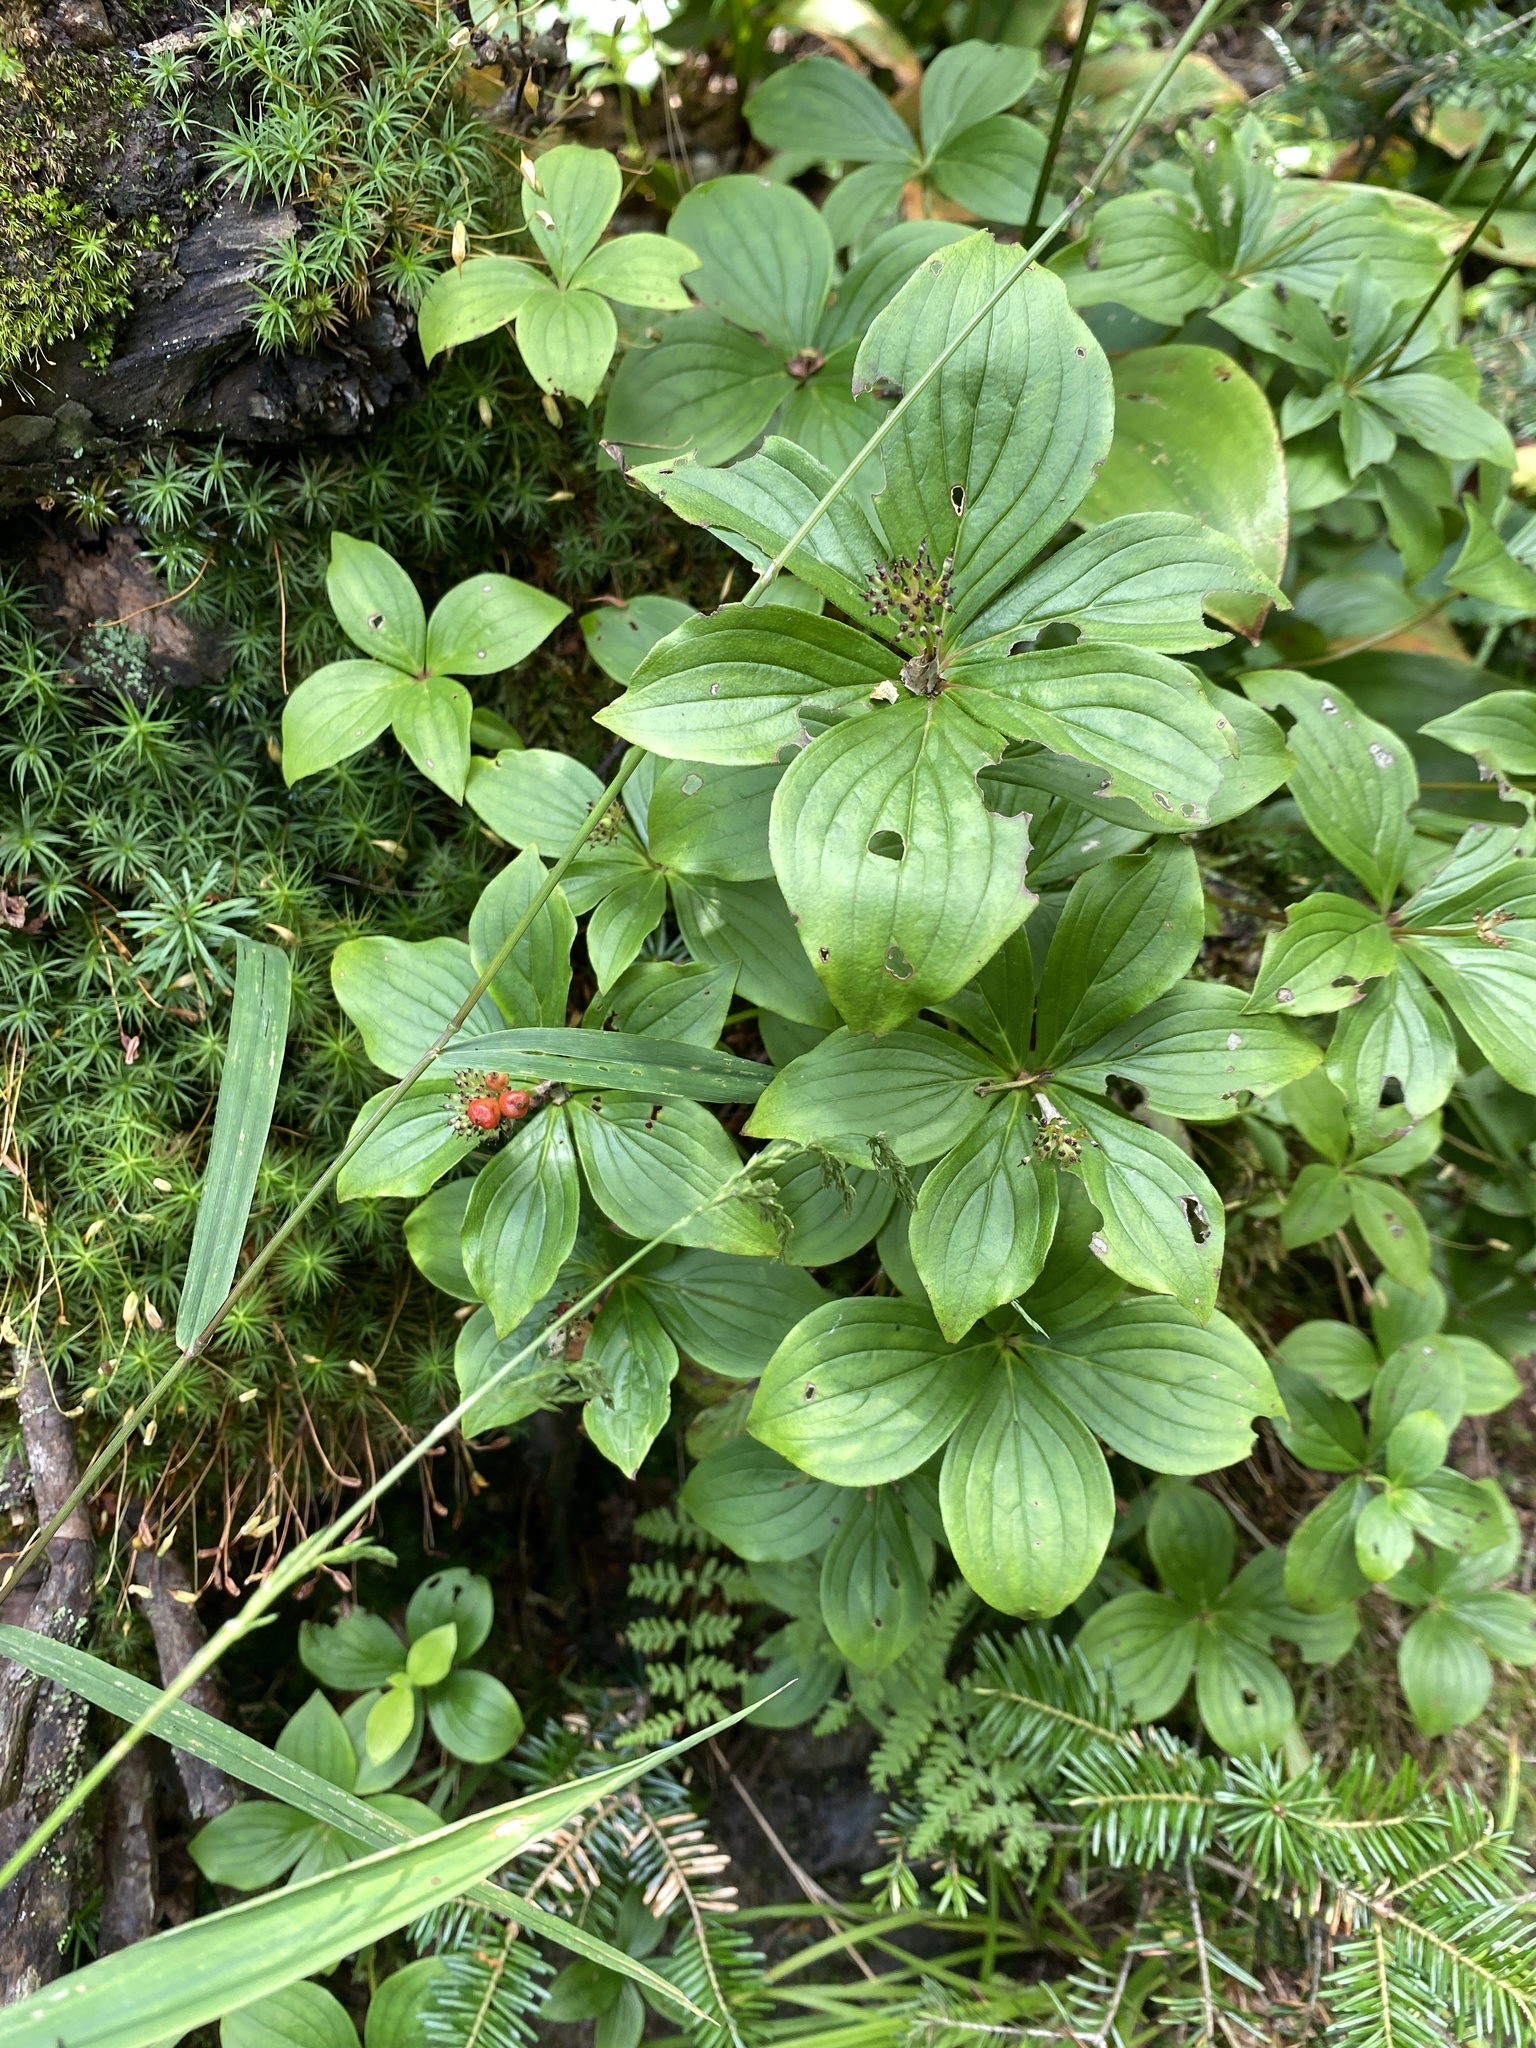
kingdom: Plantae
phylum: Tracheophyta
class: Magnoliopsida
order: Cornales
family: Cornaceae
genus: Cornus
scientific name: Cornus canadensis
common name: Creeping dogwood
